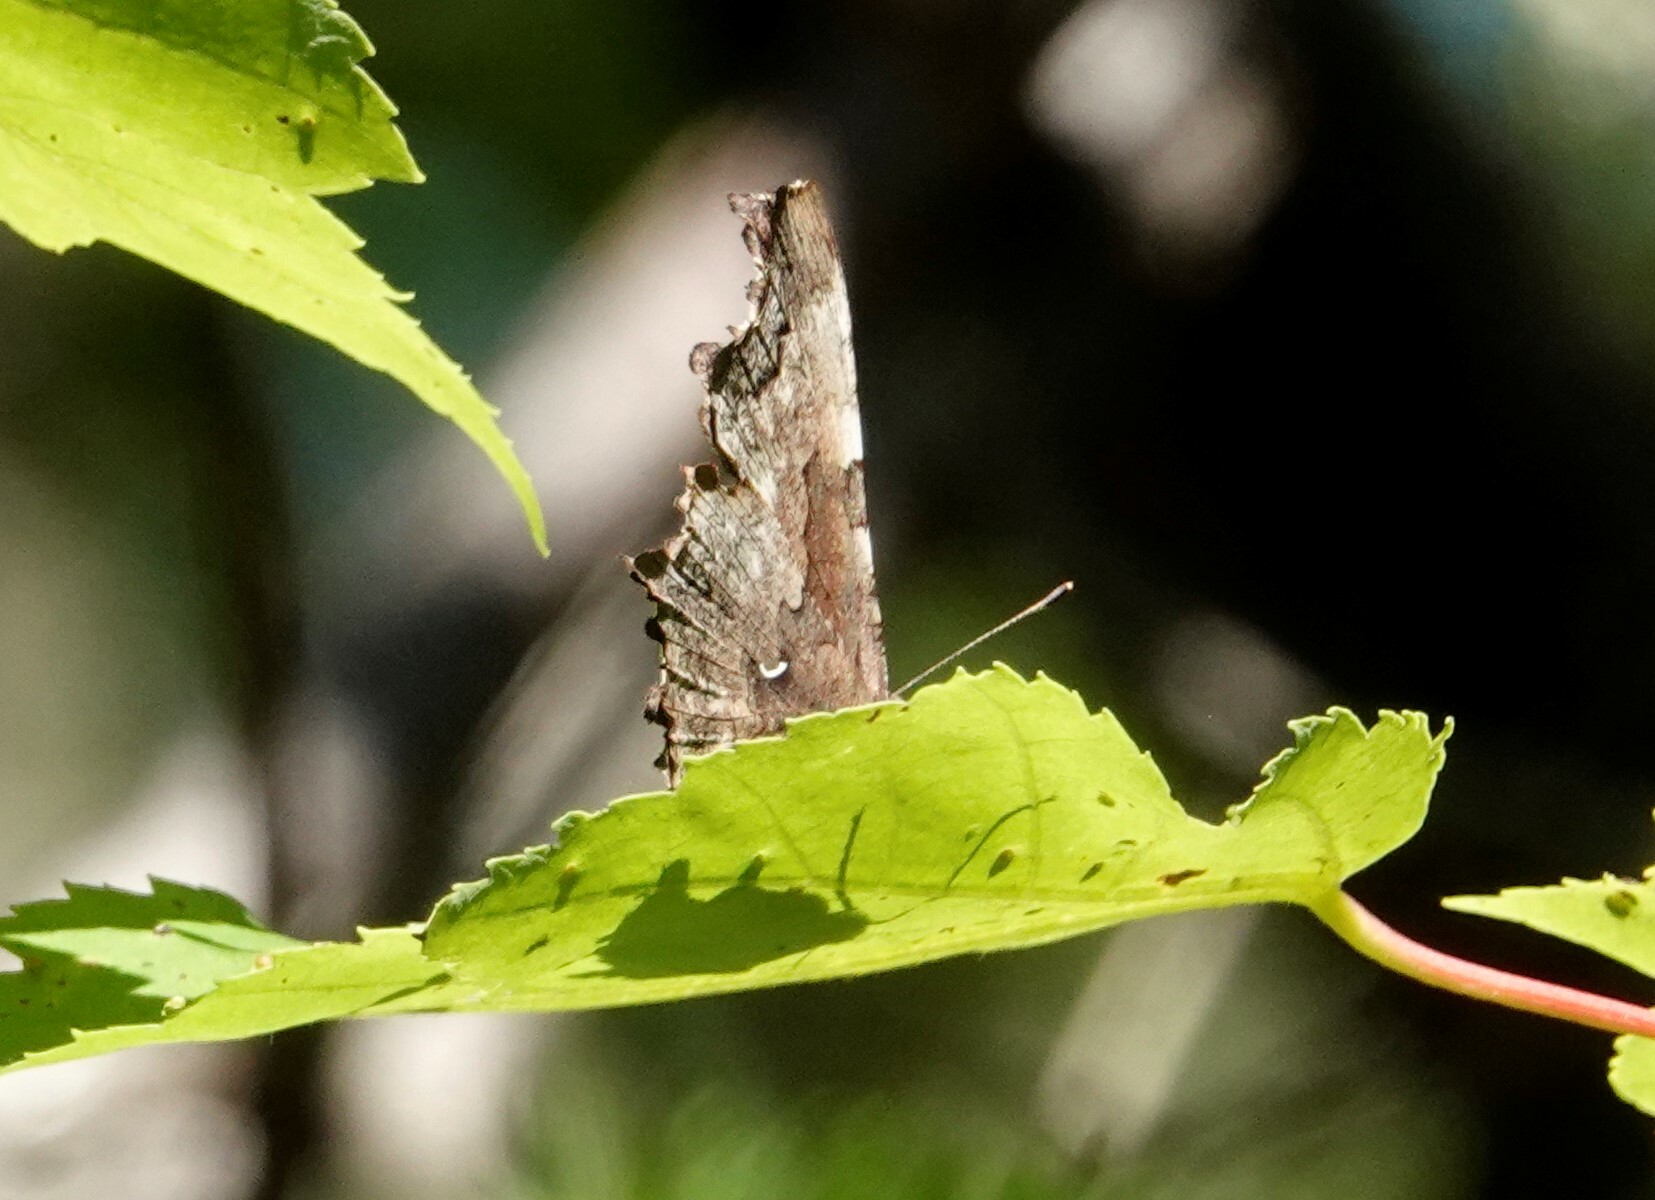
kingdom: Animalia
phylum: Arthropoda
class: Insecta
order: Lepidoptera
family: Nymphalidae
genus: Polygonia
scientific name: Polygonia faunus
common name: Green comma
